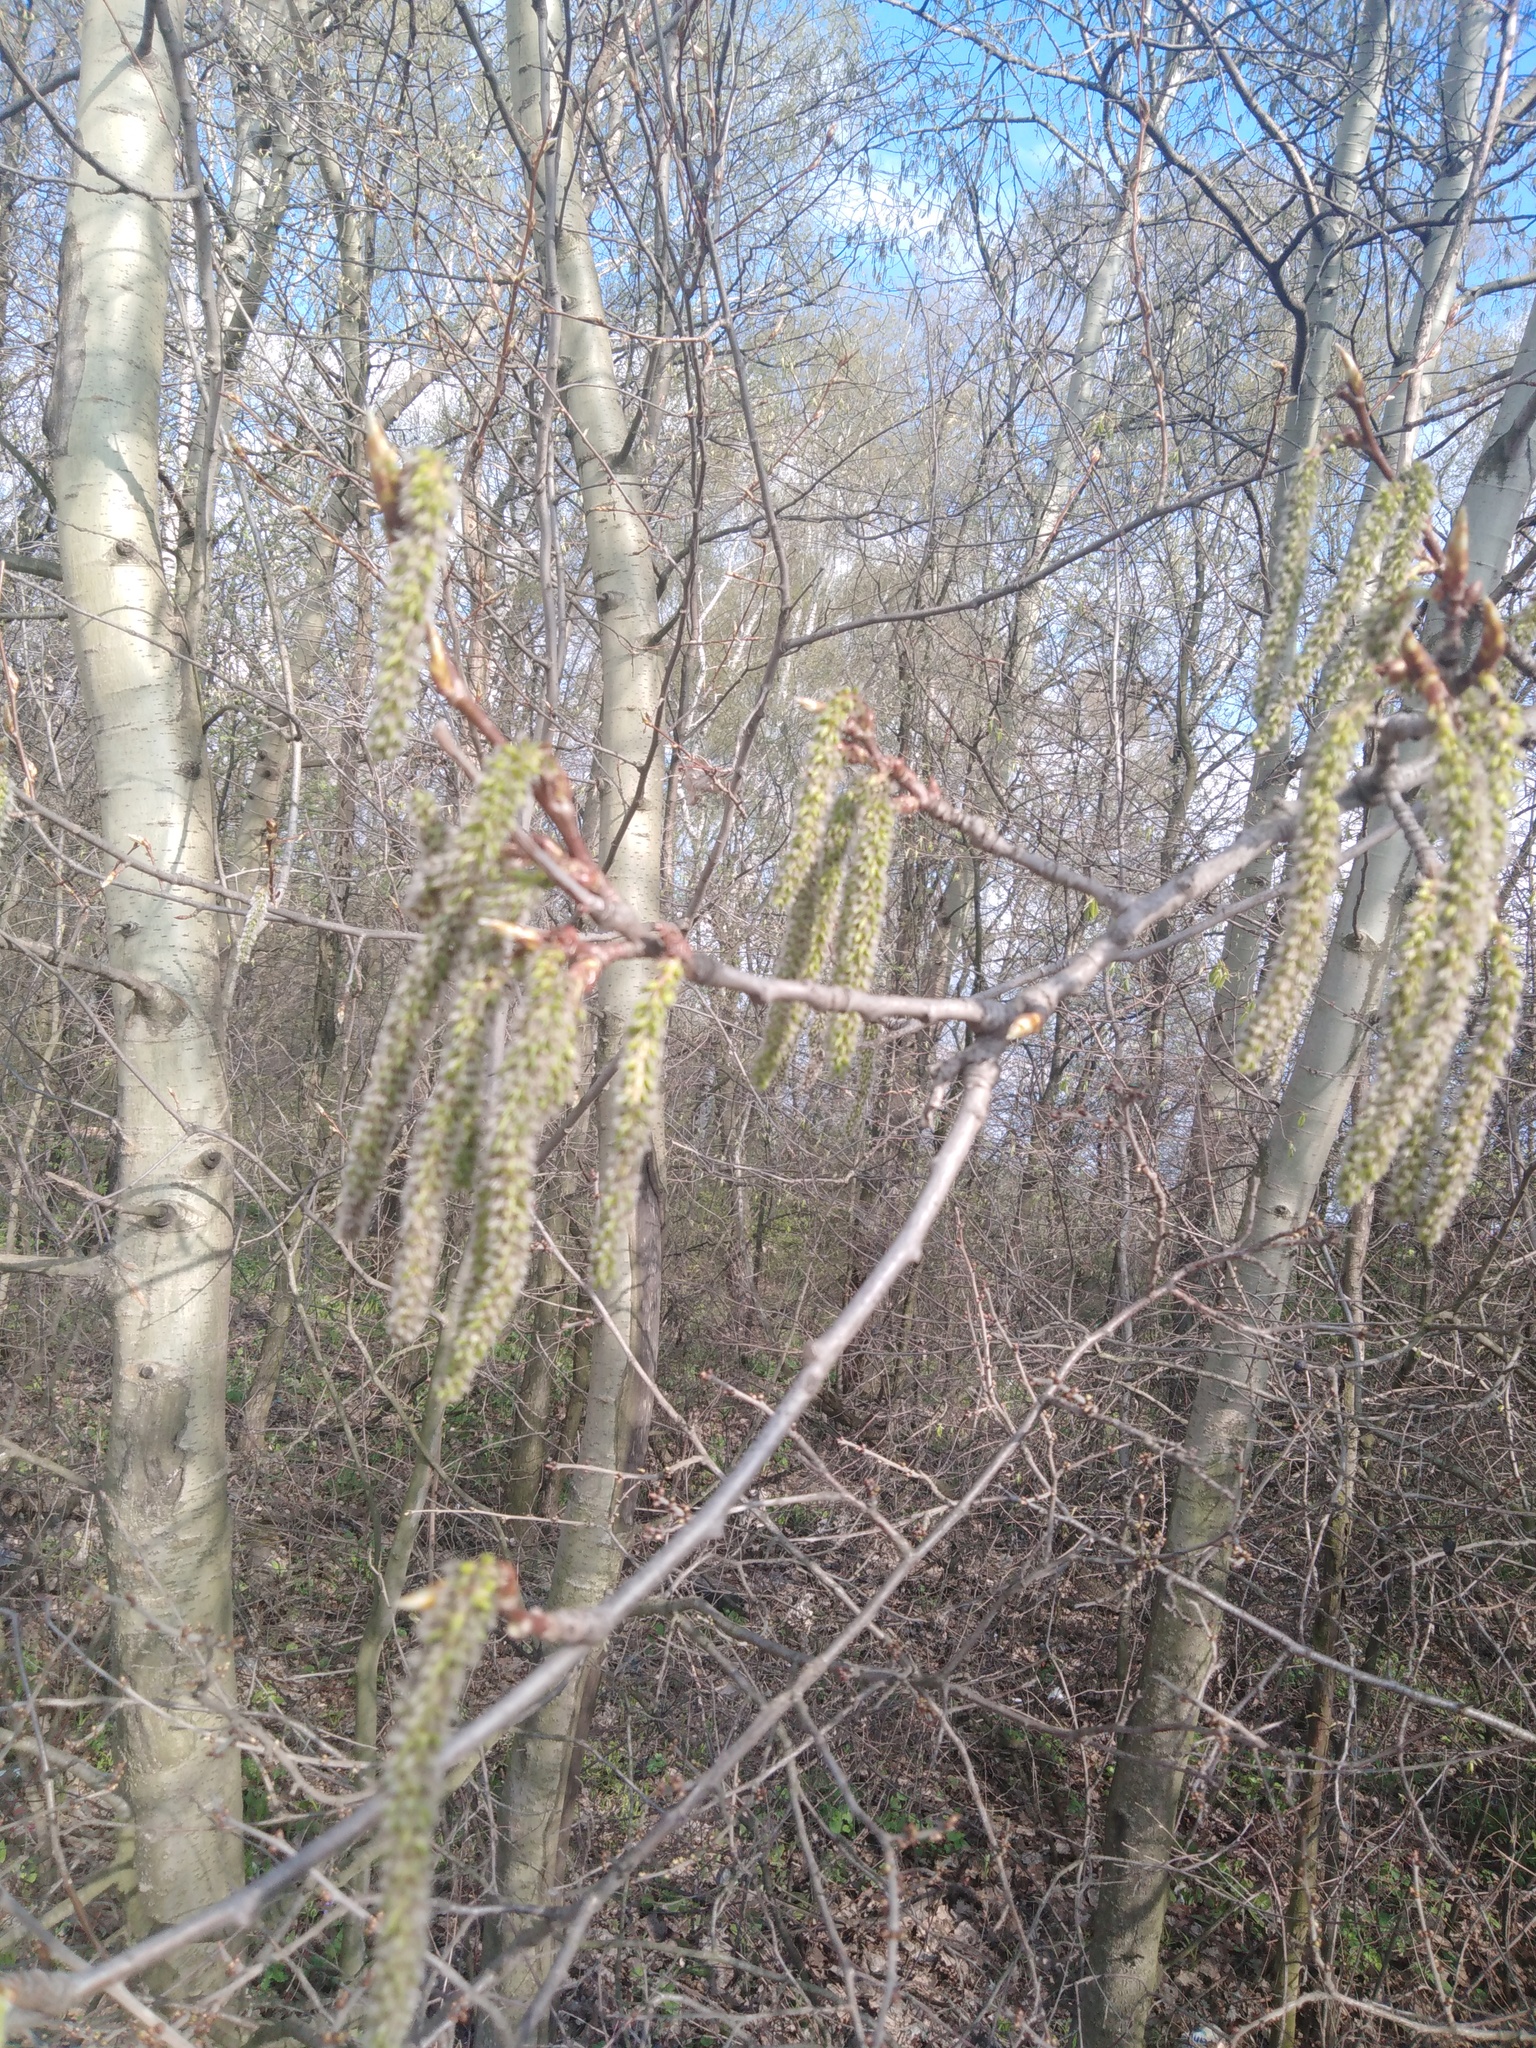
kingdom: Plantae
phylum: Tracheophyta
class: Magnoliopsida
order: Malpighiales
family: Salicaceae
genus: Populus
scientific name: Populus tremula
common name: European aspen
